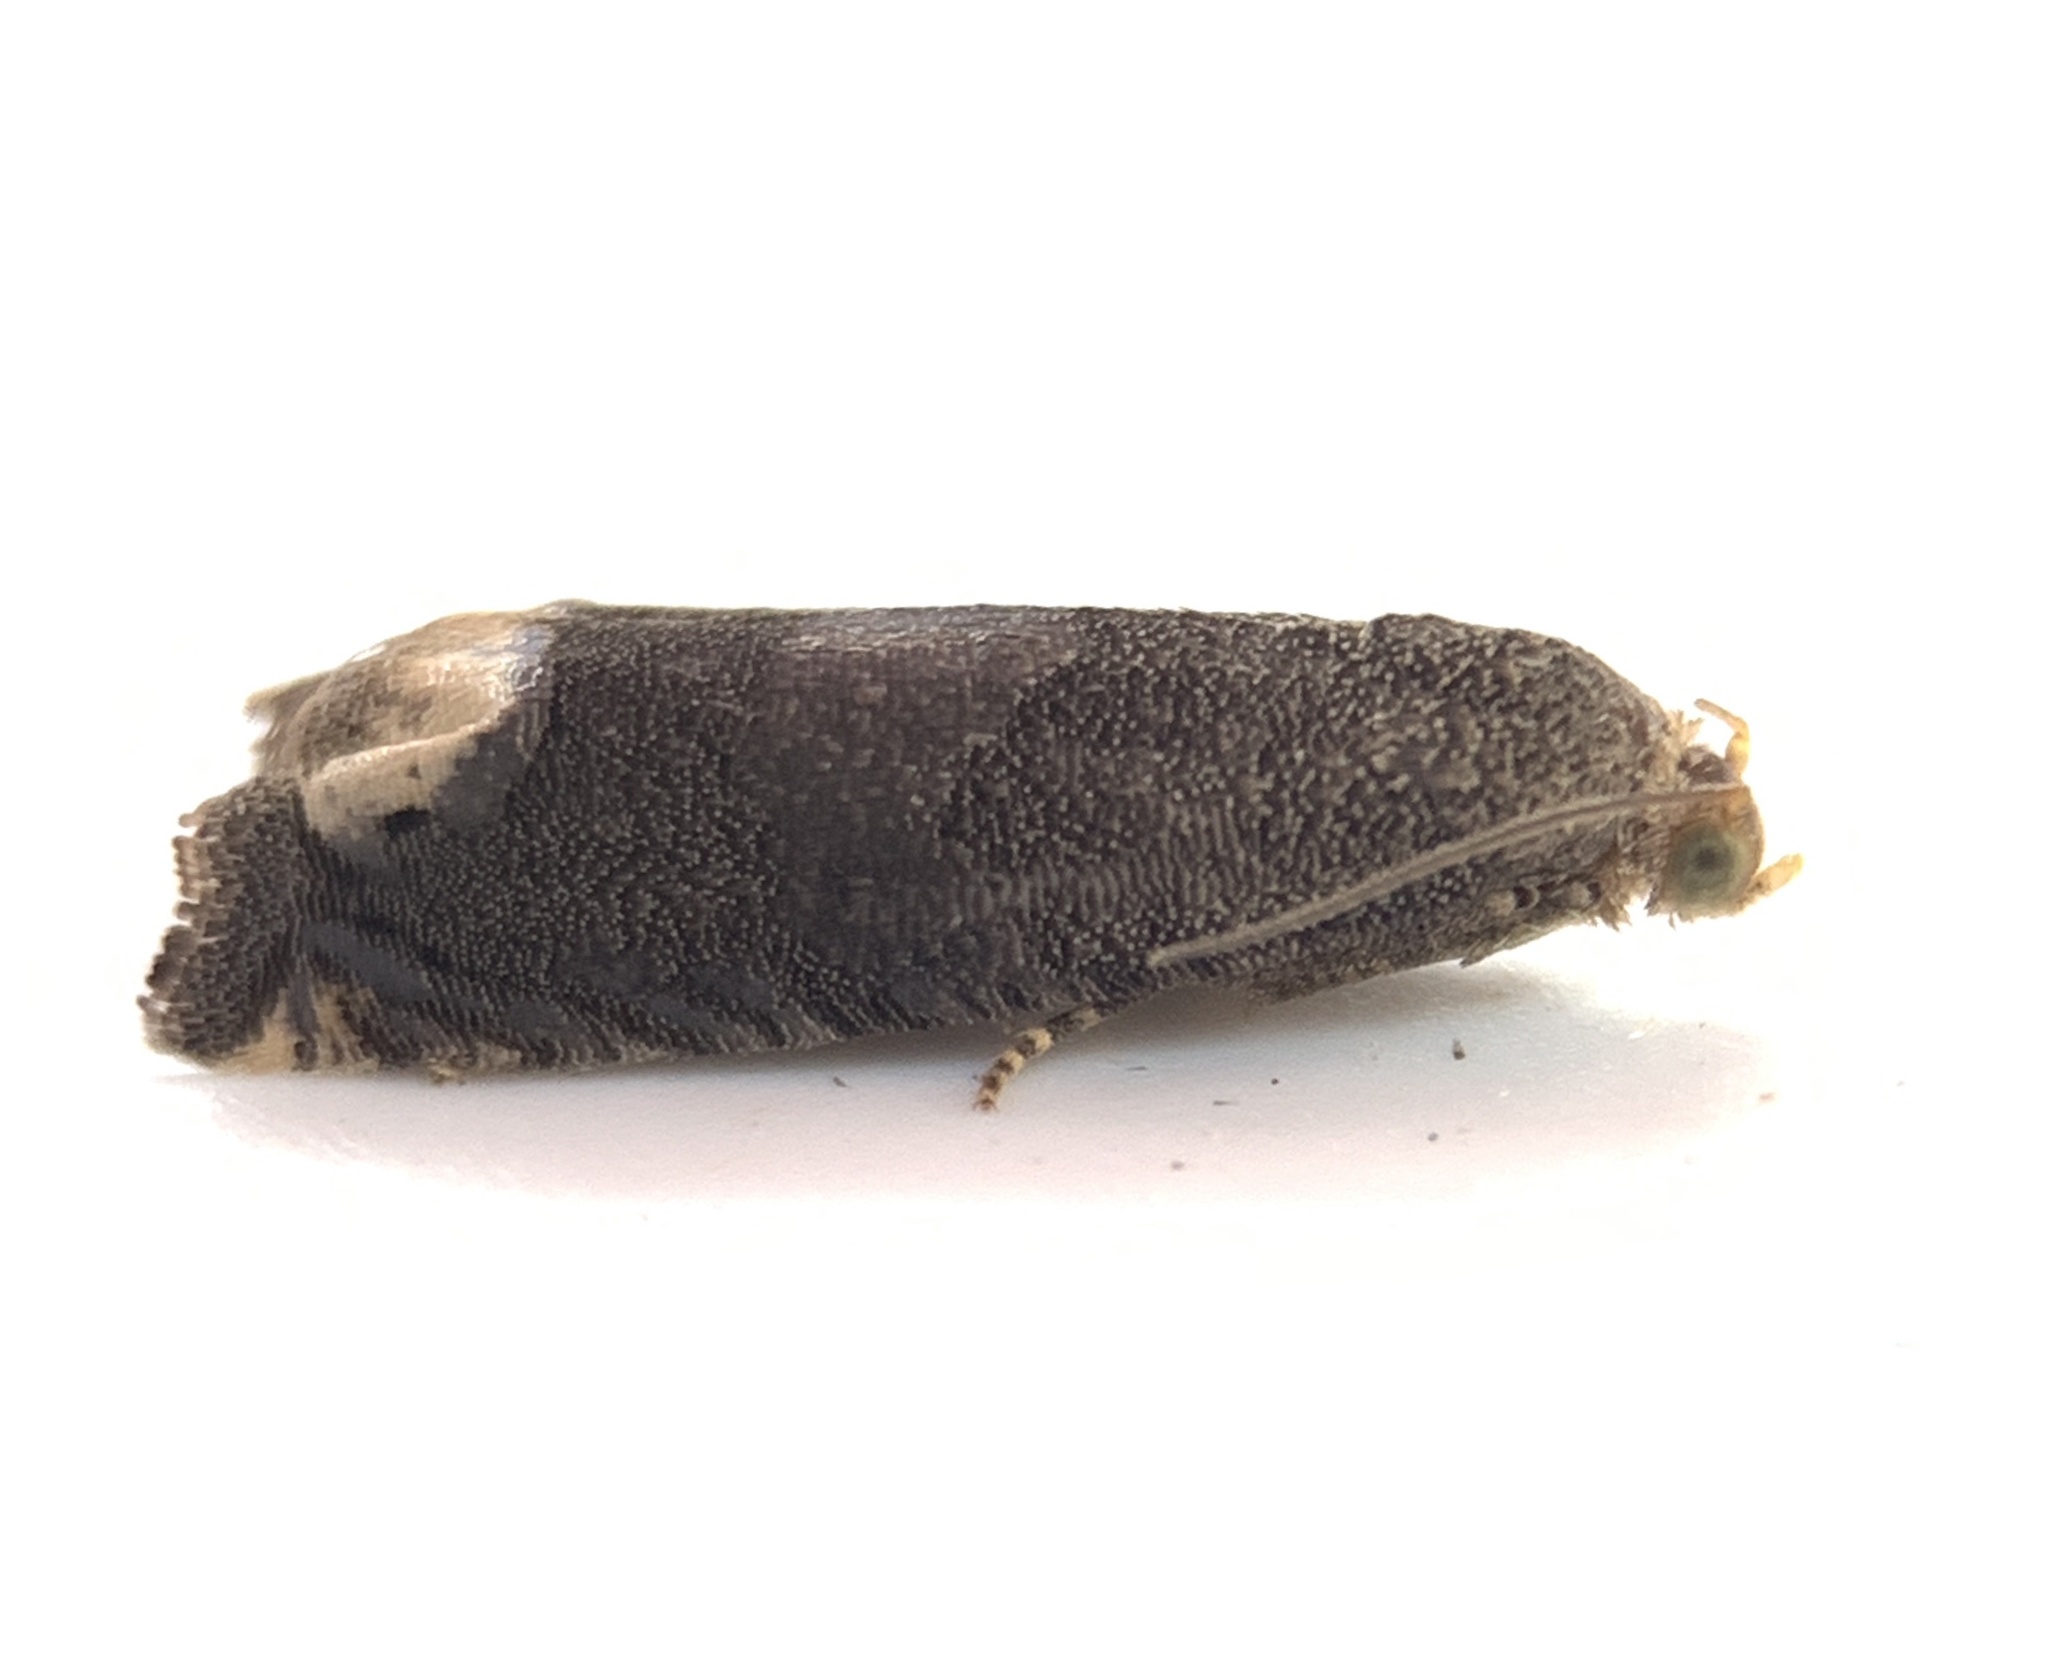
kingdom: Animalia
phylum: Arthropoda
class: Insecta
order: Lepidoptera
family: Tortricidae
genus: Epiblema
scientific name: Epiblema strenuana
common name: Ragweed borer moth
